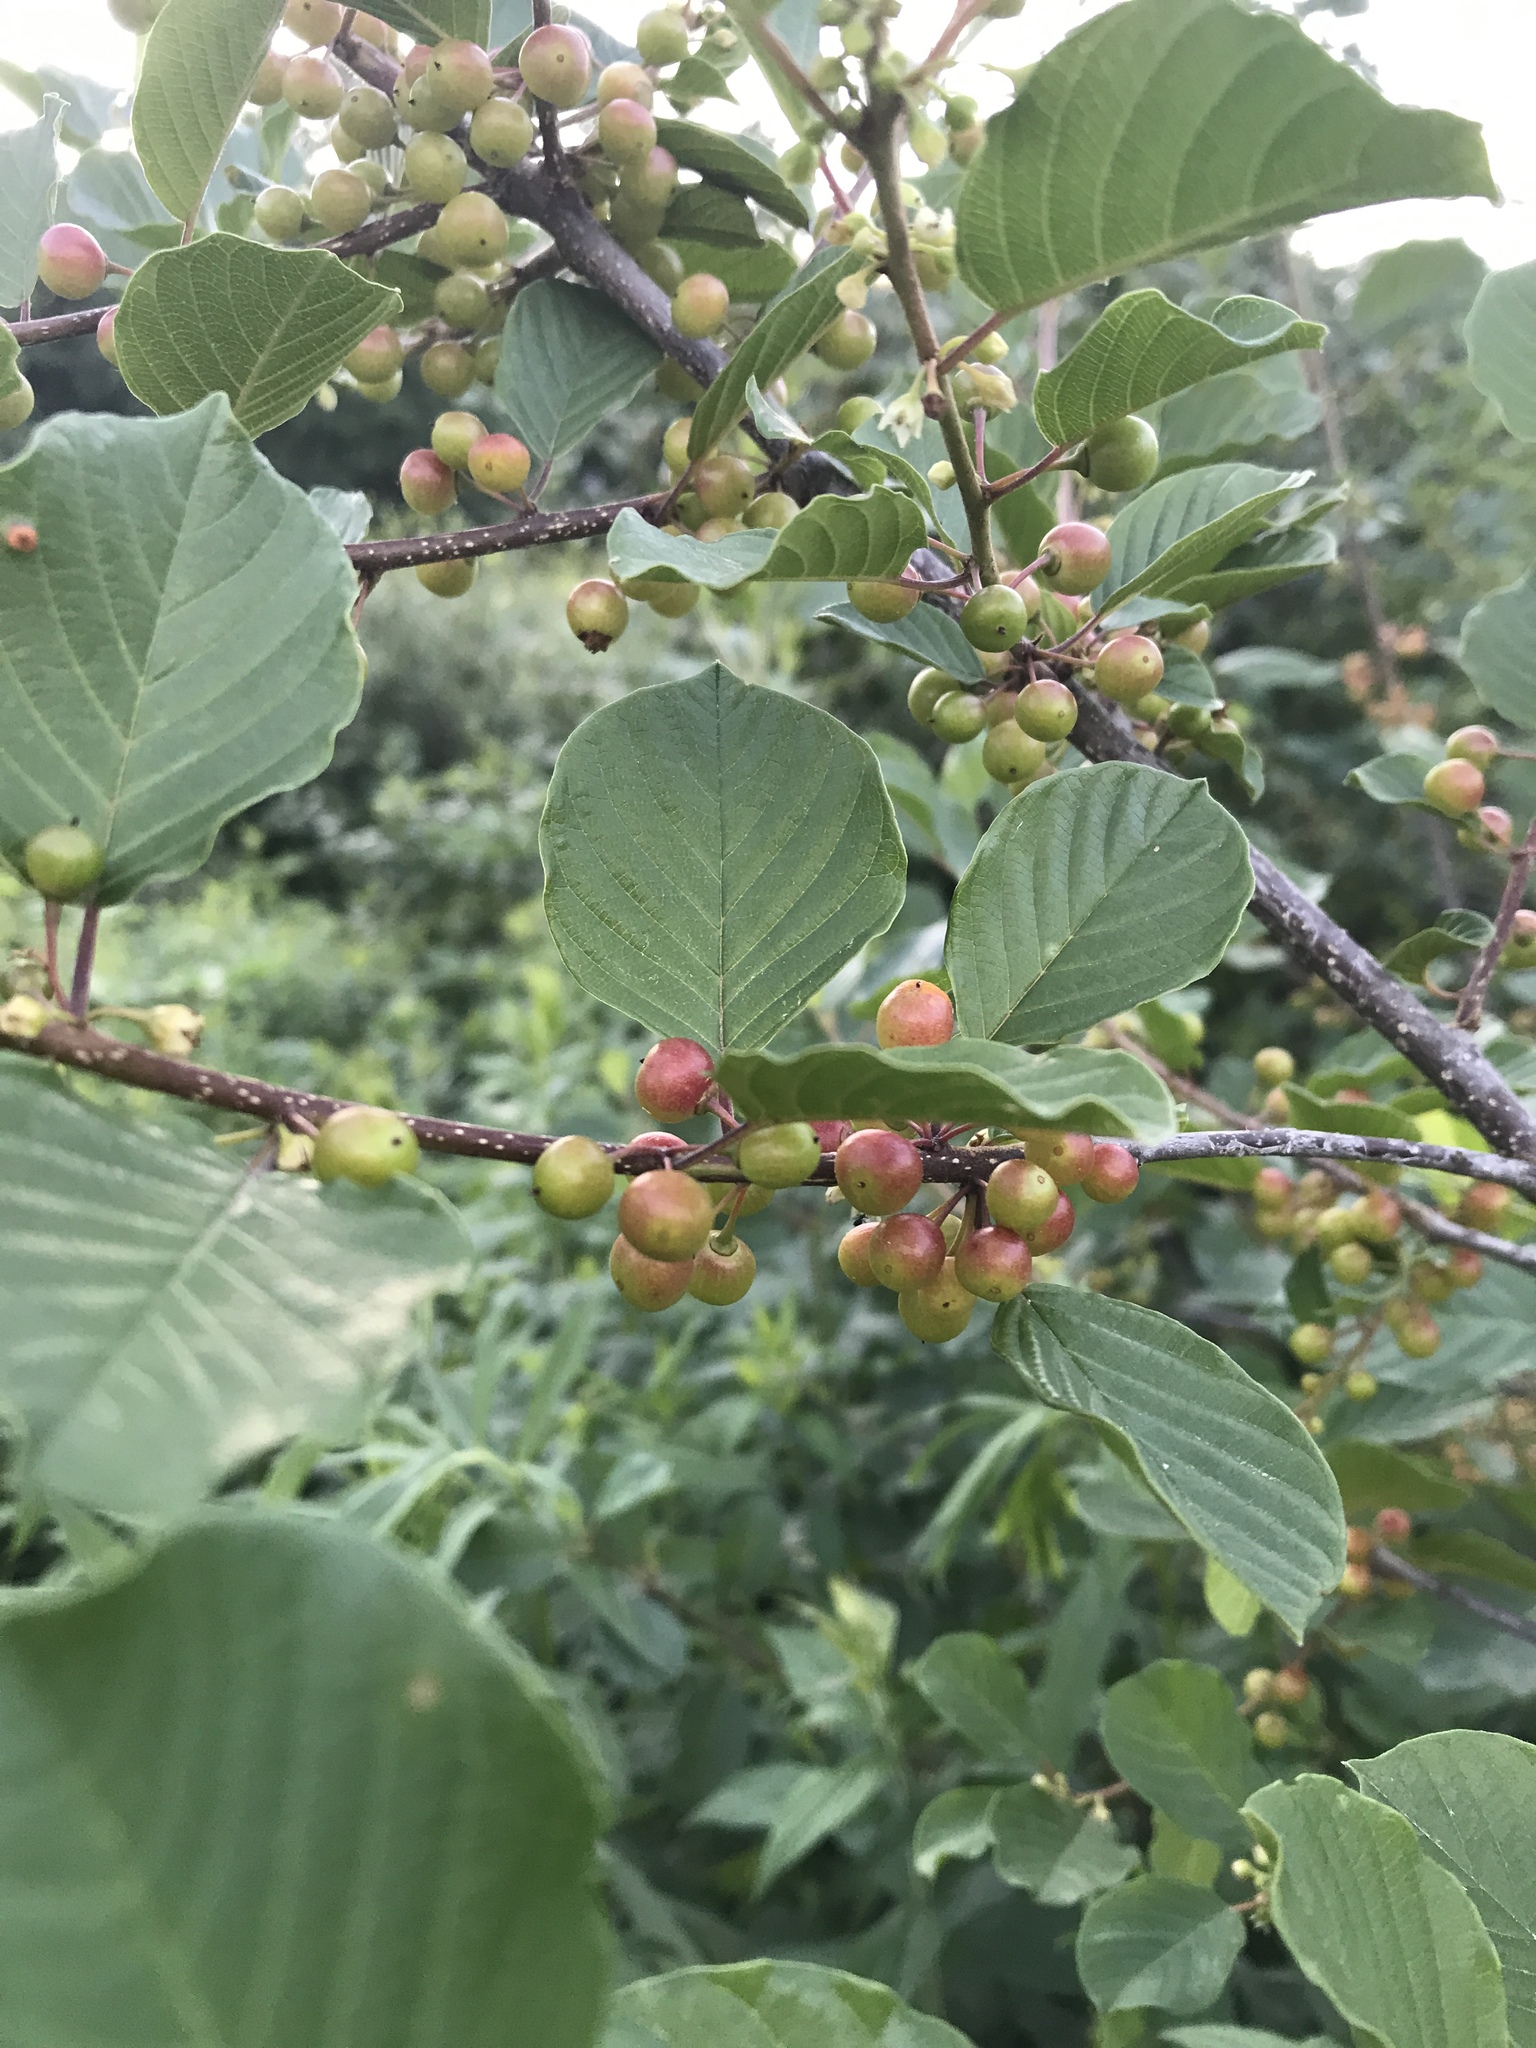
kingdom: Plantae
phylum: Tracheophyta
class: Magnoliopsida
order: Rosales
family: Rhamnaceae
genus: Frangula
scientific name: Frangula alnus
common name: Alder buckthorn
